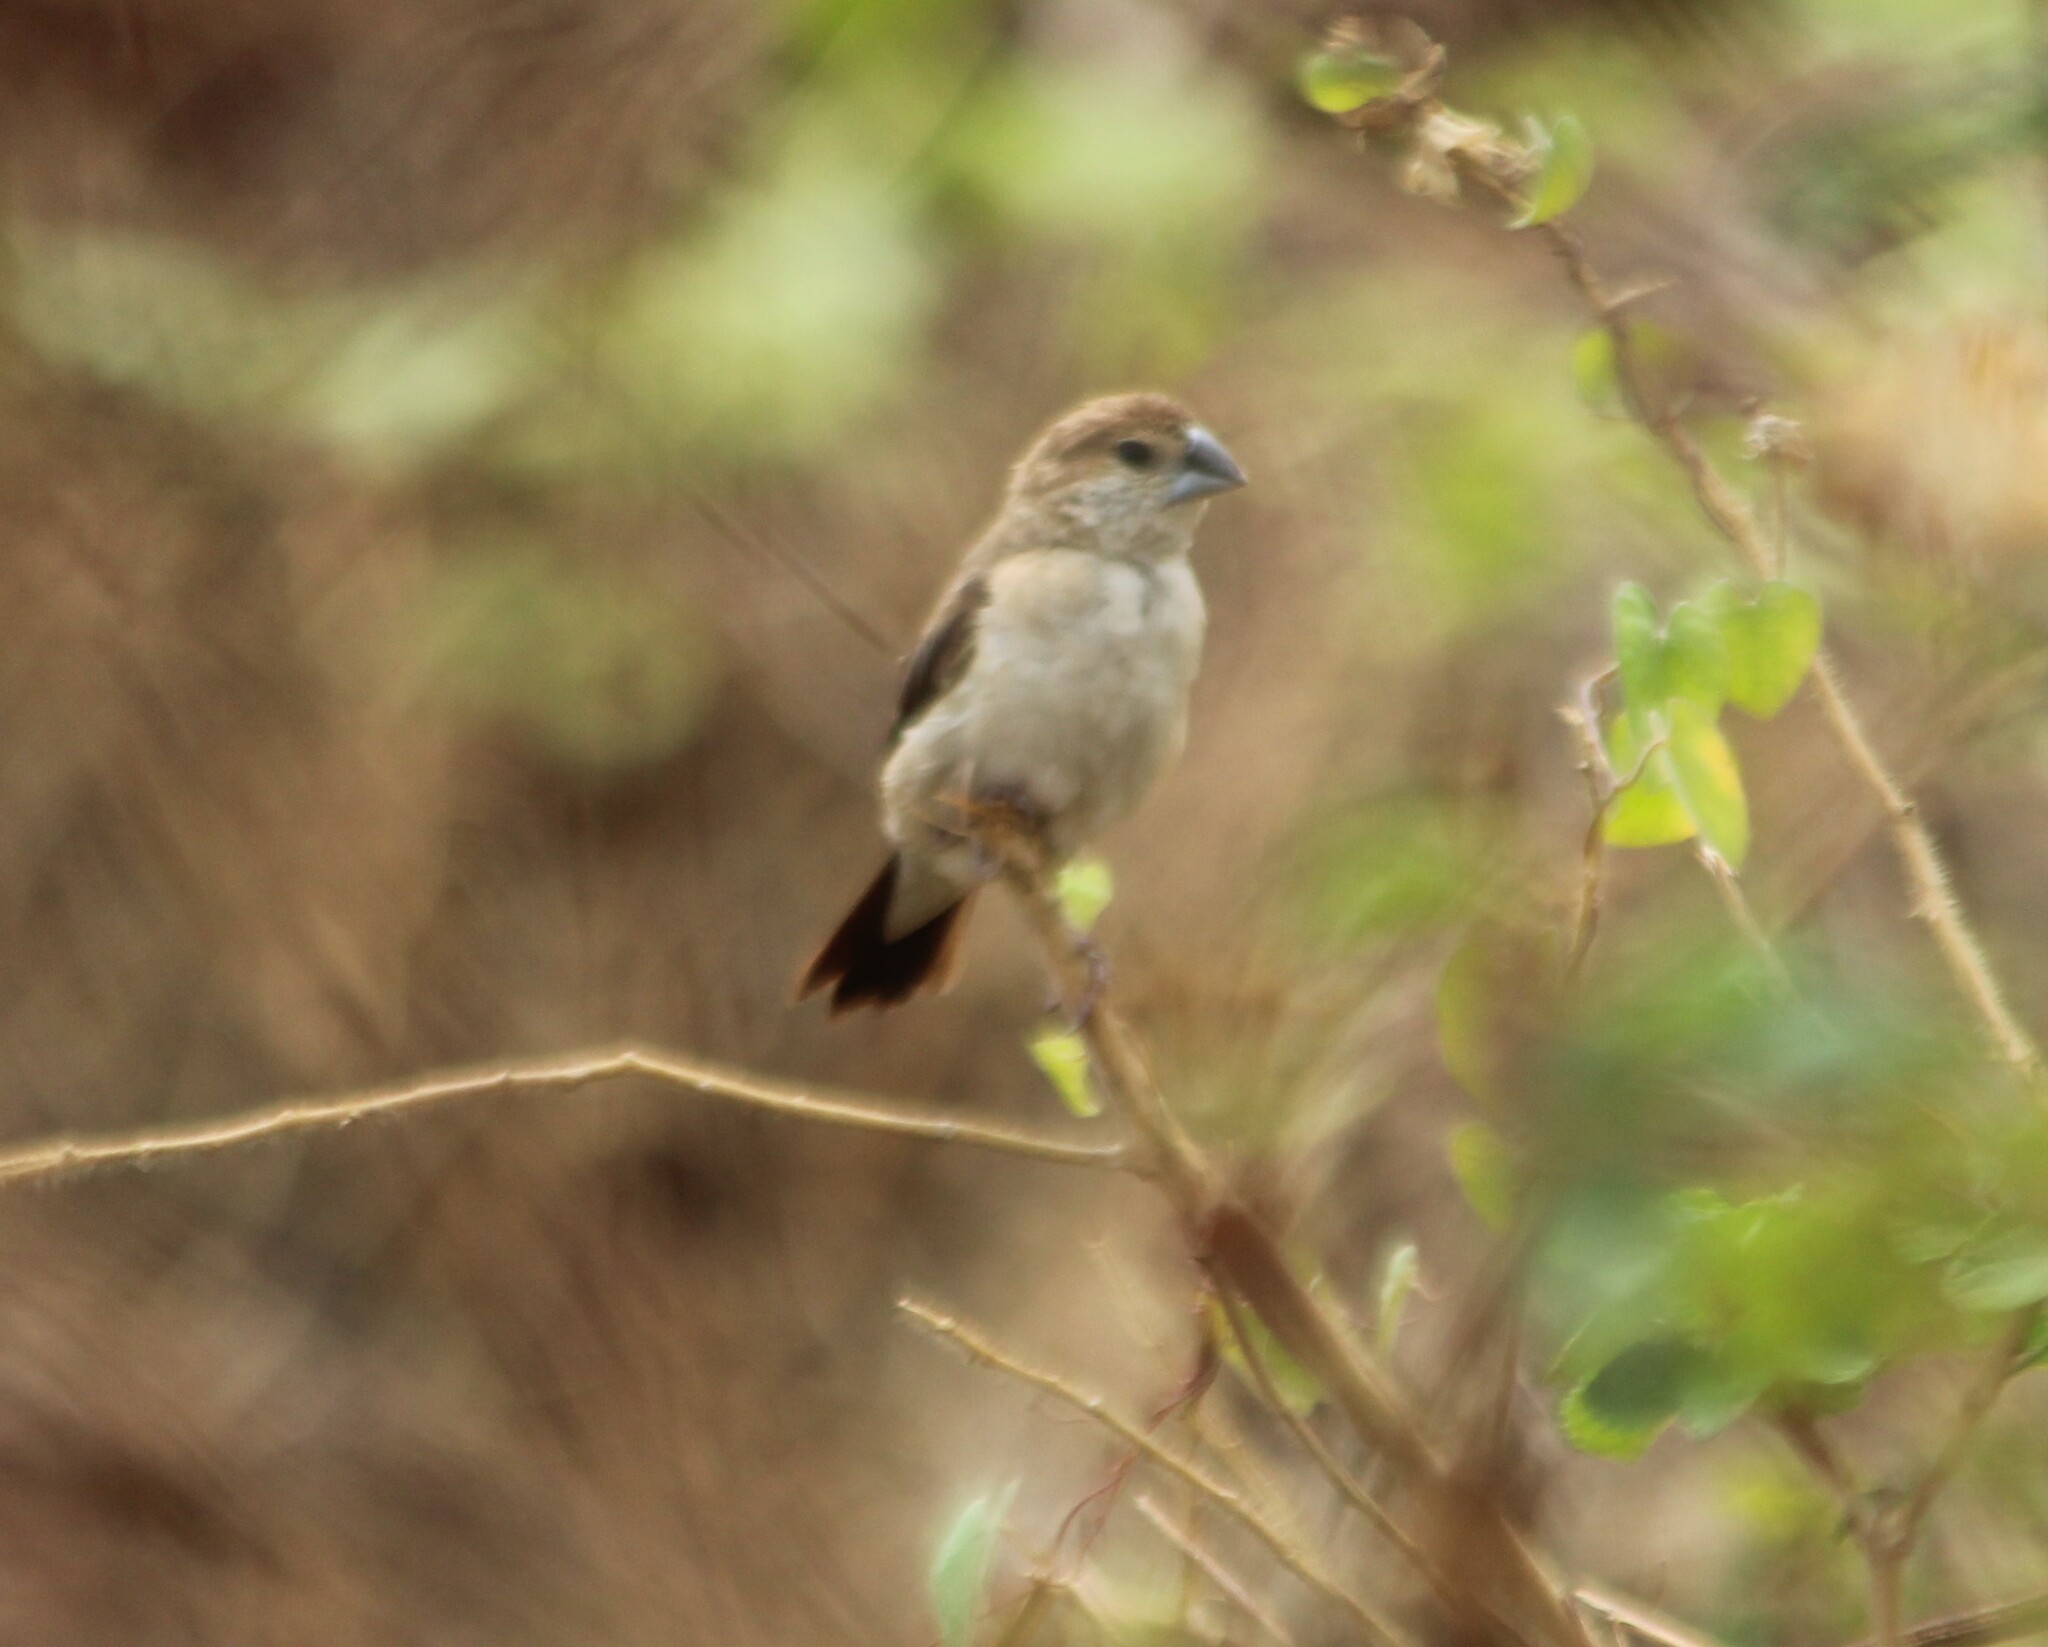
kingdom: Animalia
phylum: Chordata
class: Aves
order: Passeriformes
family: Estrildidae
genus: Euodice
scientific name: Euodice malabarica
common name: Indian silverbill
